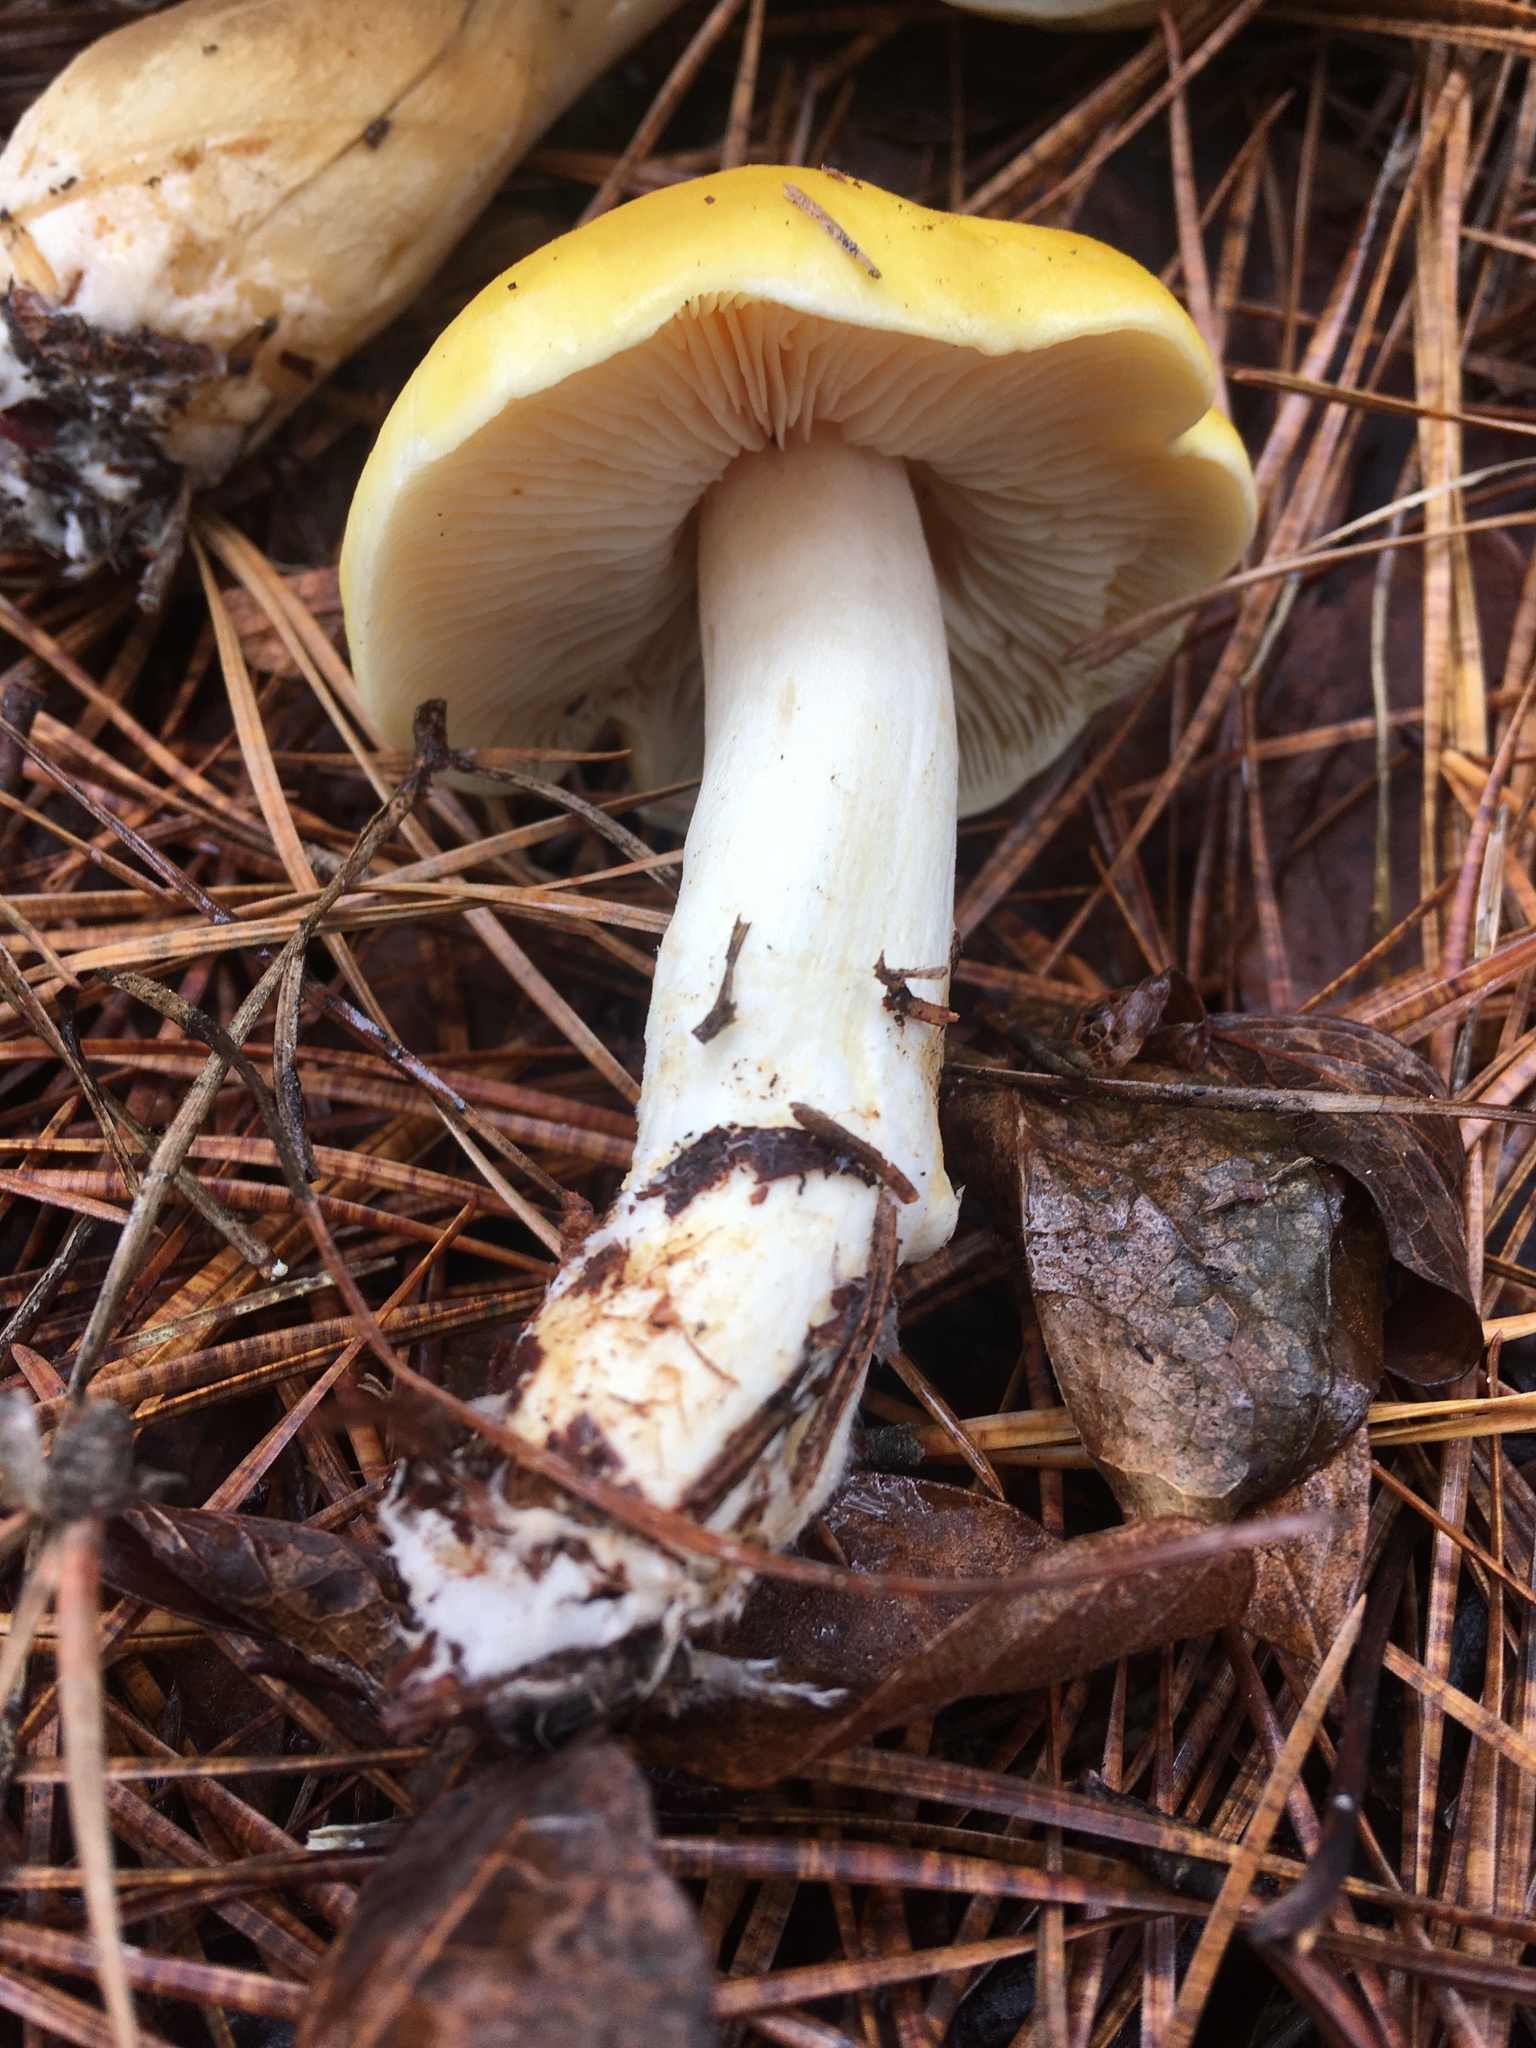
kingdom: Fungi
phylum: Basidiomycota
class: Agaricomycetes
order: Agaricales
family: Tricholomataceae
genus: Tricholoma
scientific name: Tricholoma subluteum
